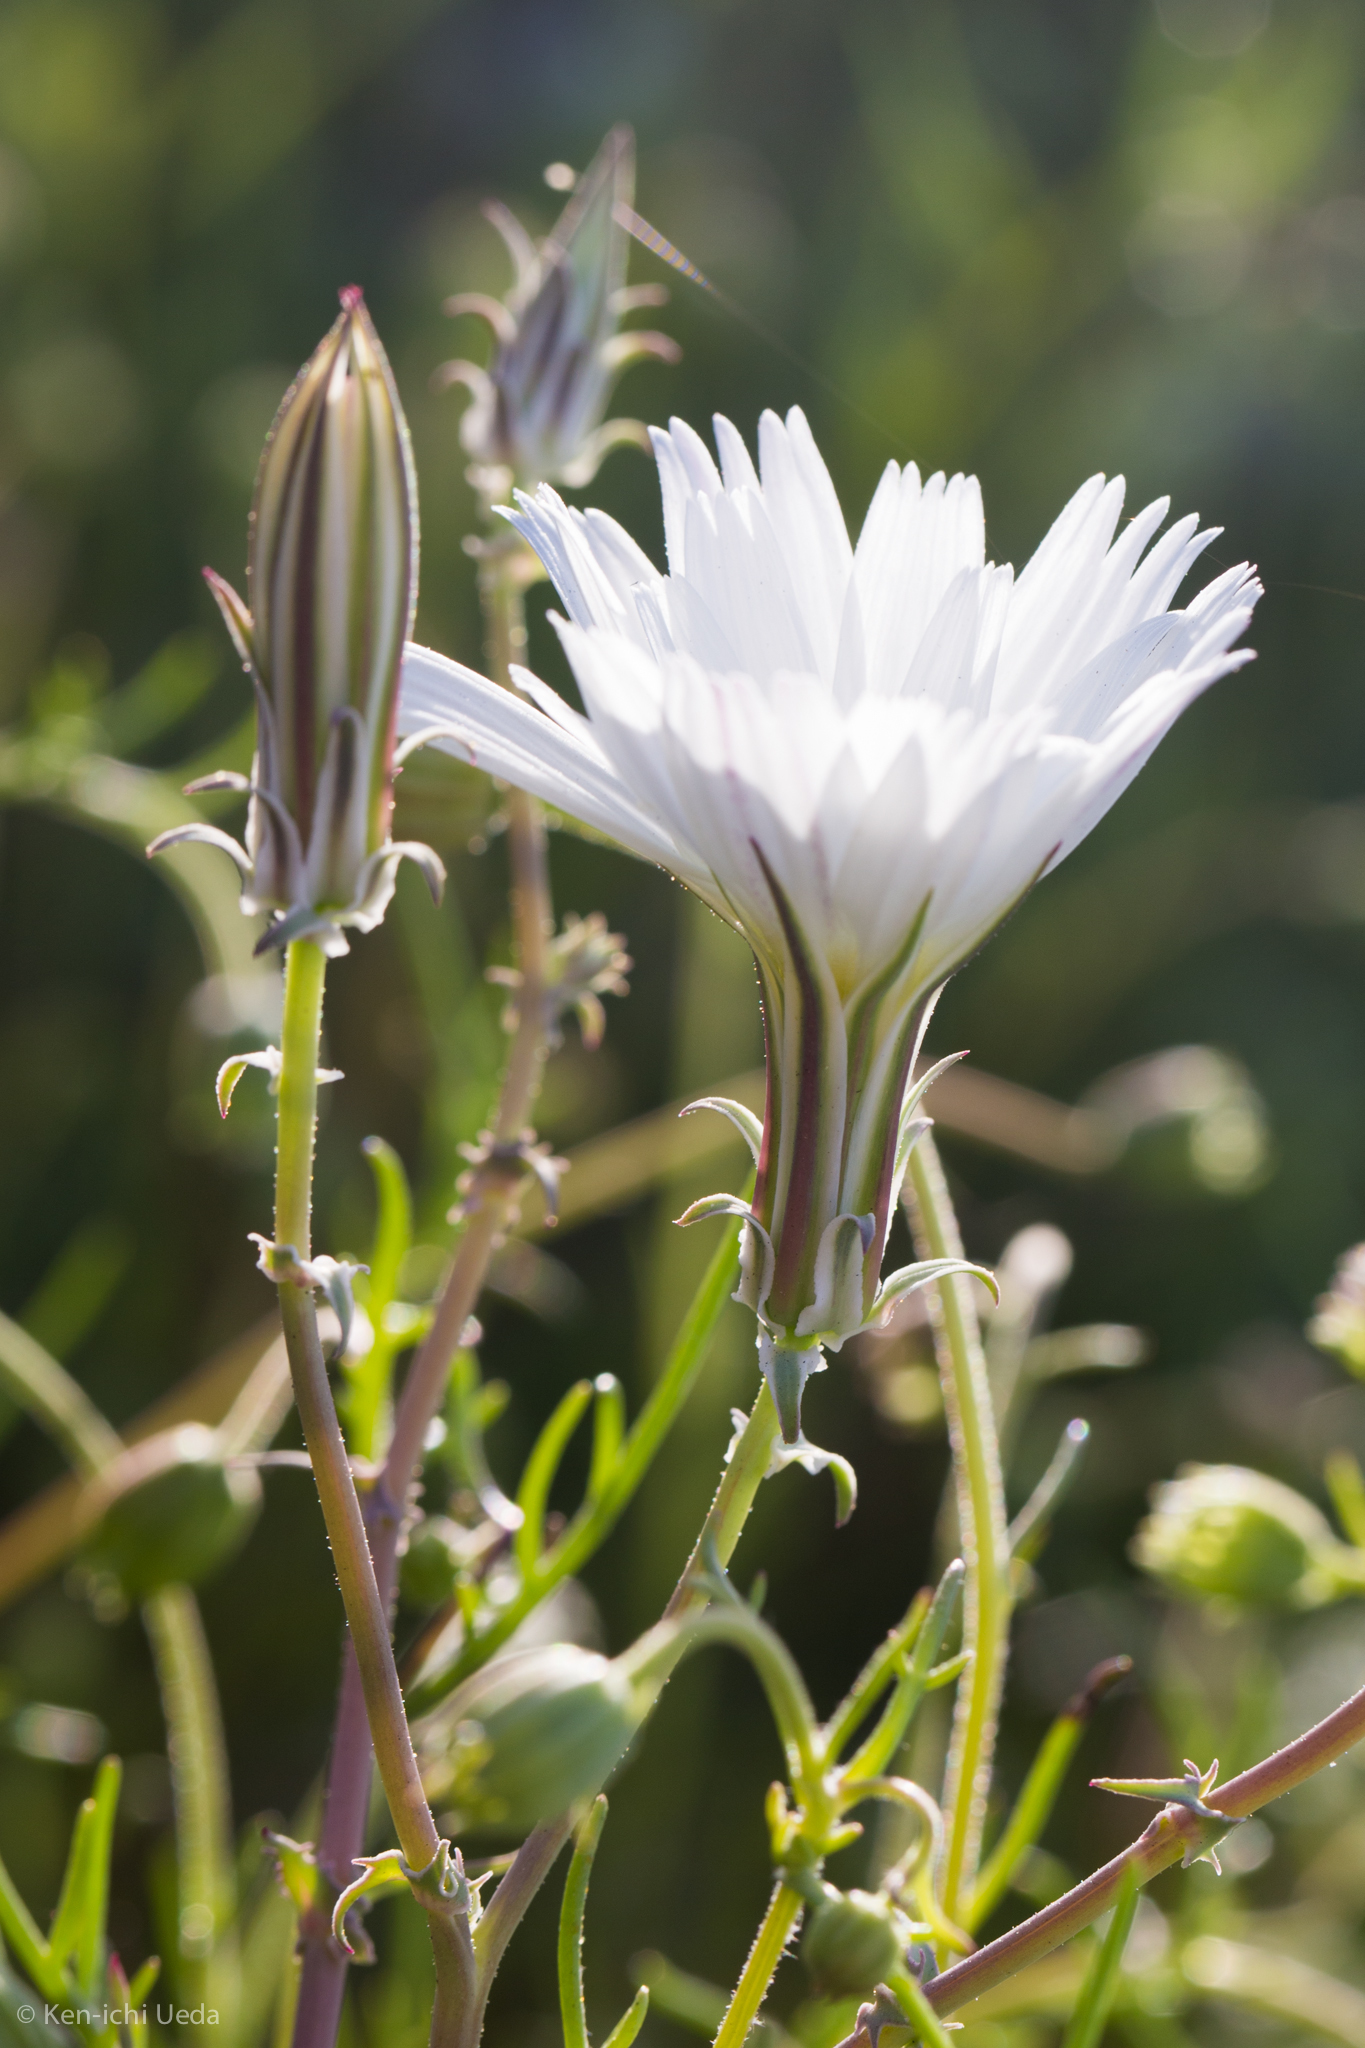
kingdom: Plantae
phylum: Tracheophyta
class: Magnoliopsida
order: Asterales
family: Asteraceae
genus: Rafinesquia
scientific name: Rafinesquia neomexicana
